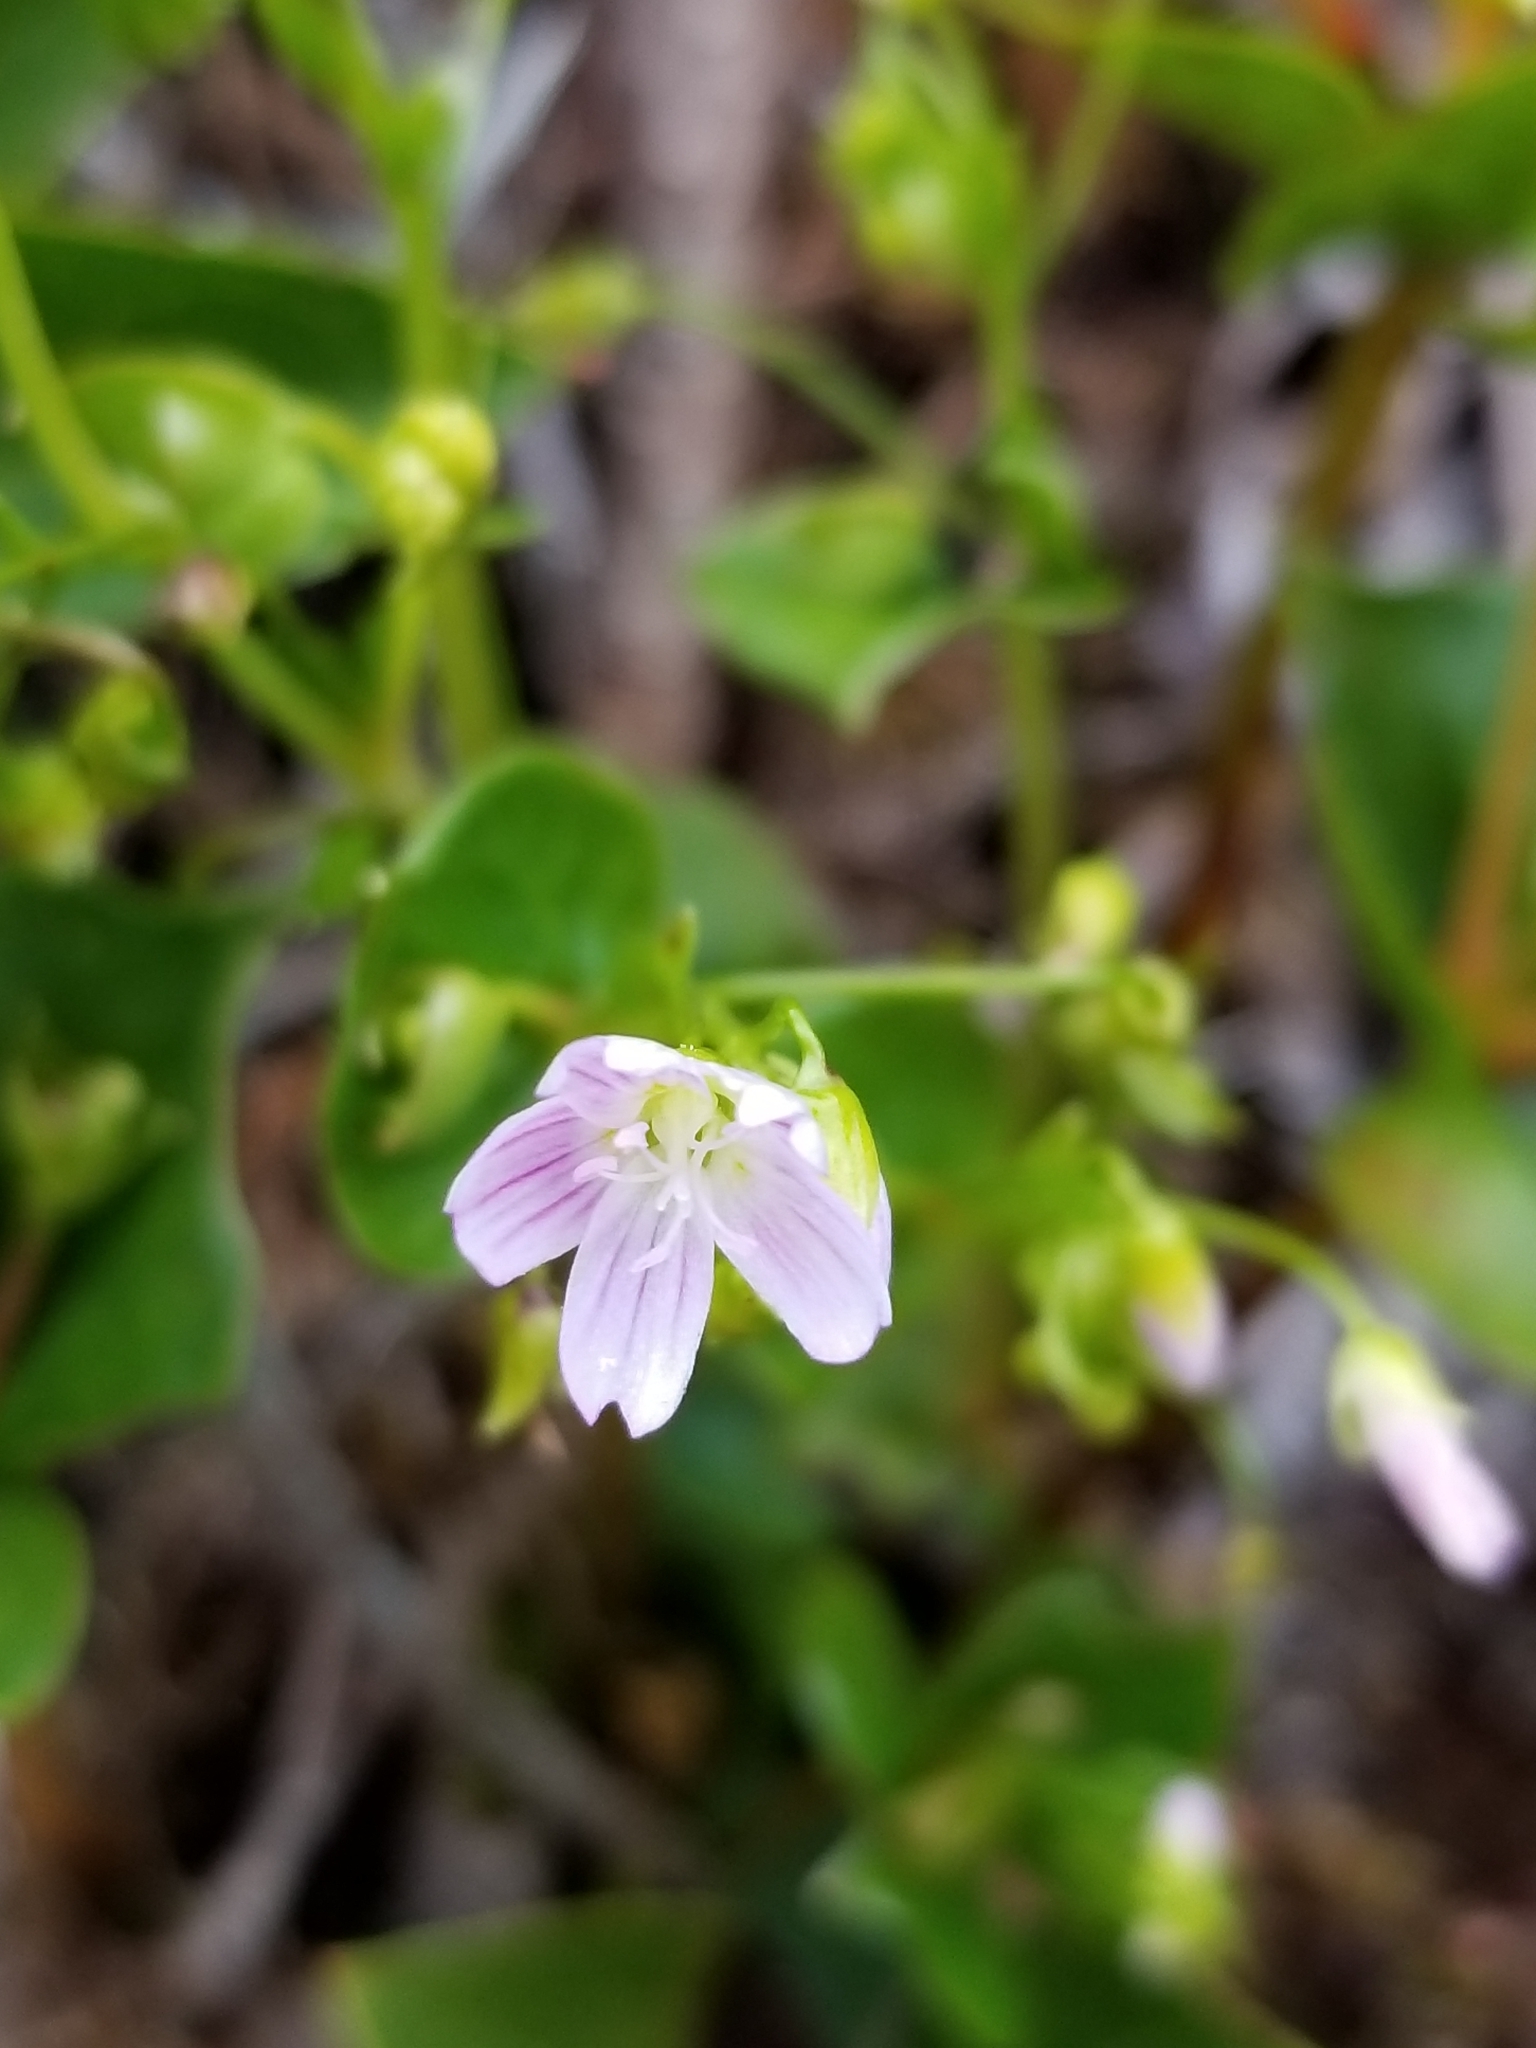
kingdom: Plantae
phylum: Tracheophyta
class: Magnoliopsida
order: Caryophyllales
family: Montiaceae
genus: Claytonia
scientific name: Claytonia sibirica
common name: Pink purslane
